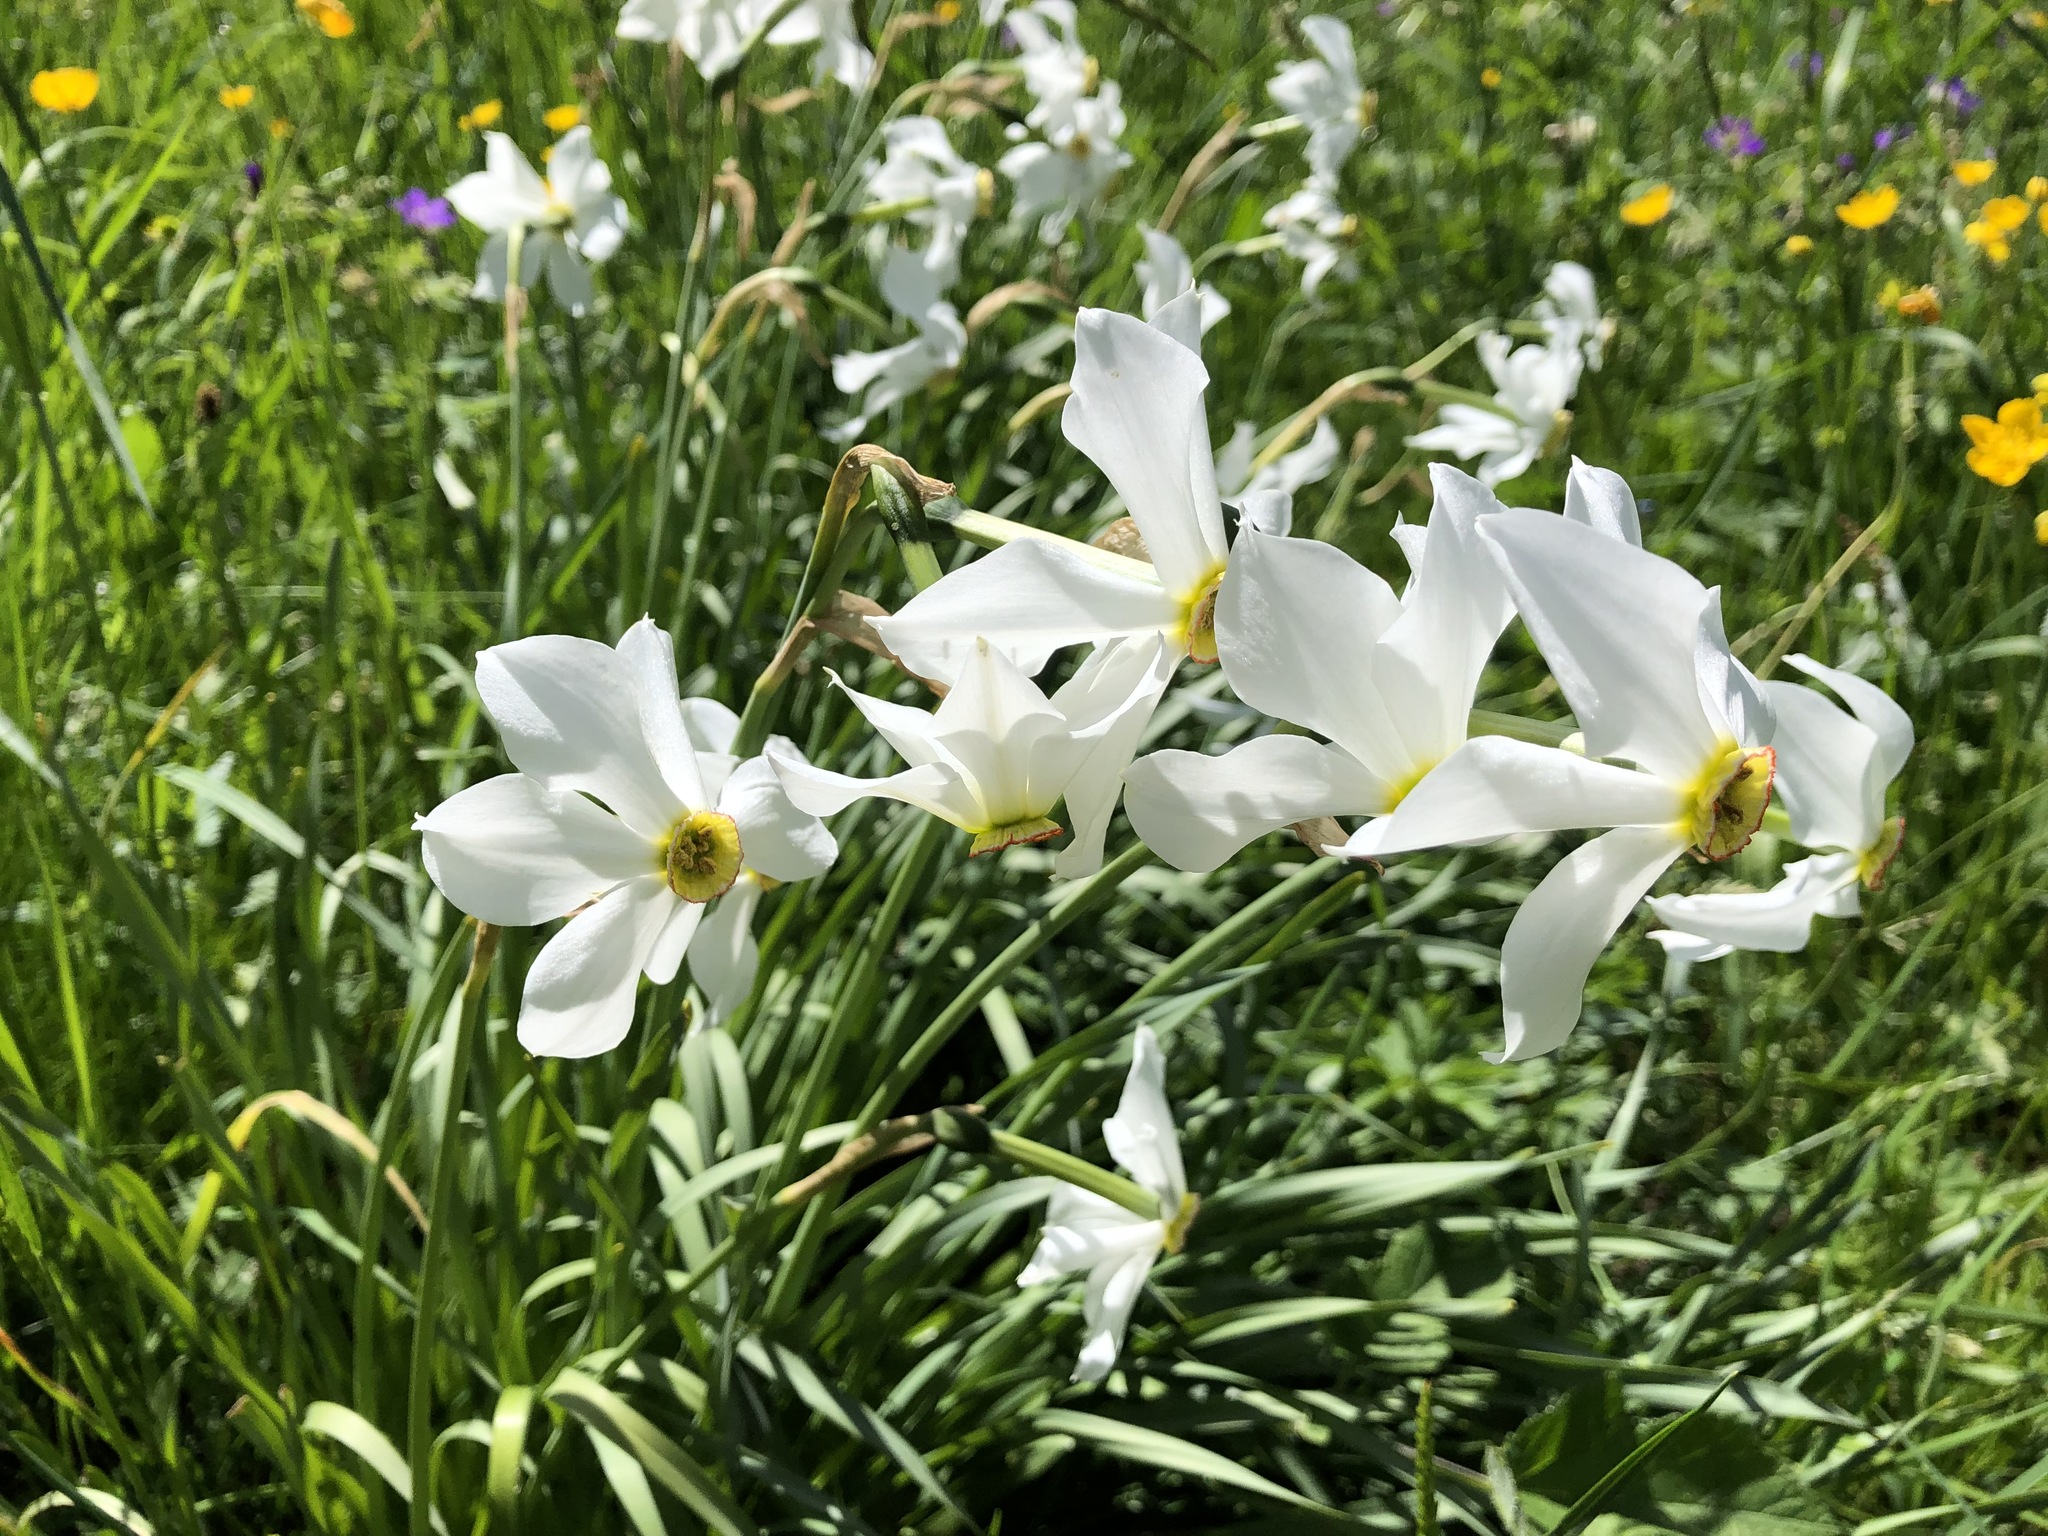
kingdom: Plantae
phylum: Tracheophyta
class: Liliopsida
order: Asparagales
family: Amaryllidaceae
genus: Narcissus
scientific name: Narcissus poeticus
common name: Pheasant's-eye daffodil
